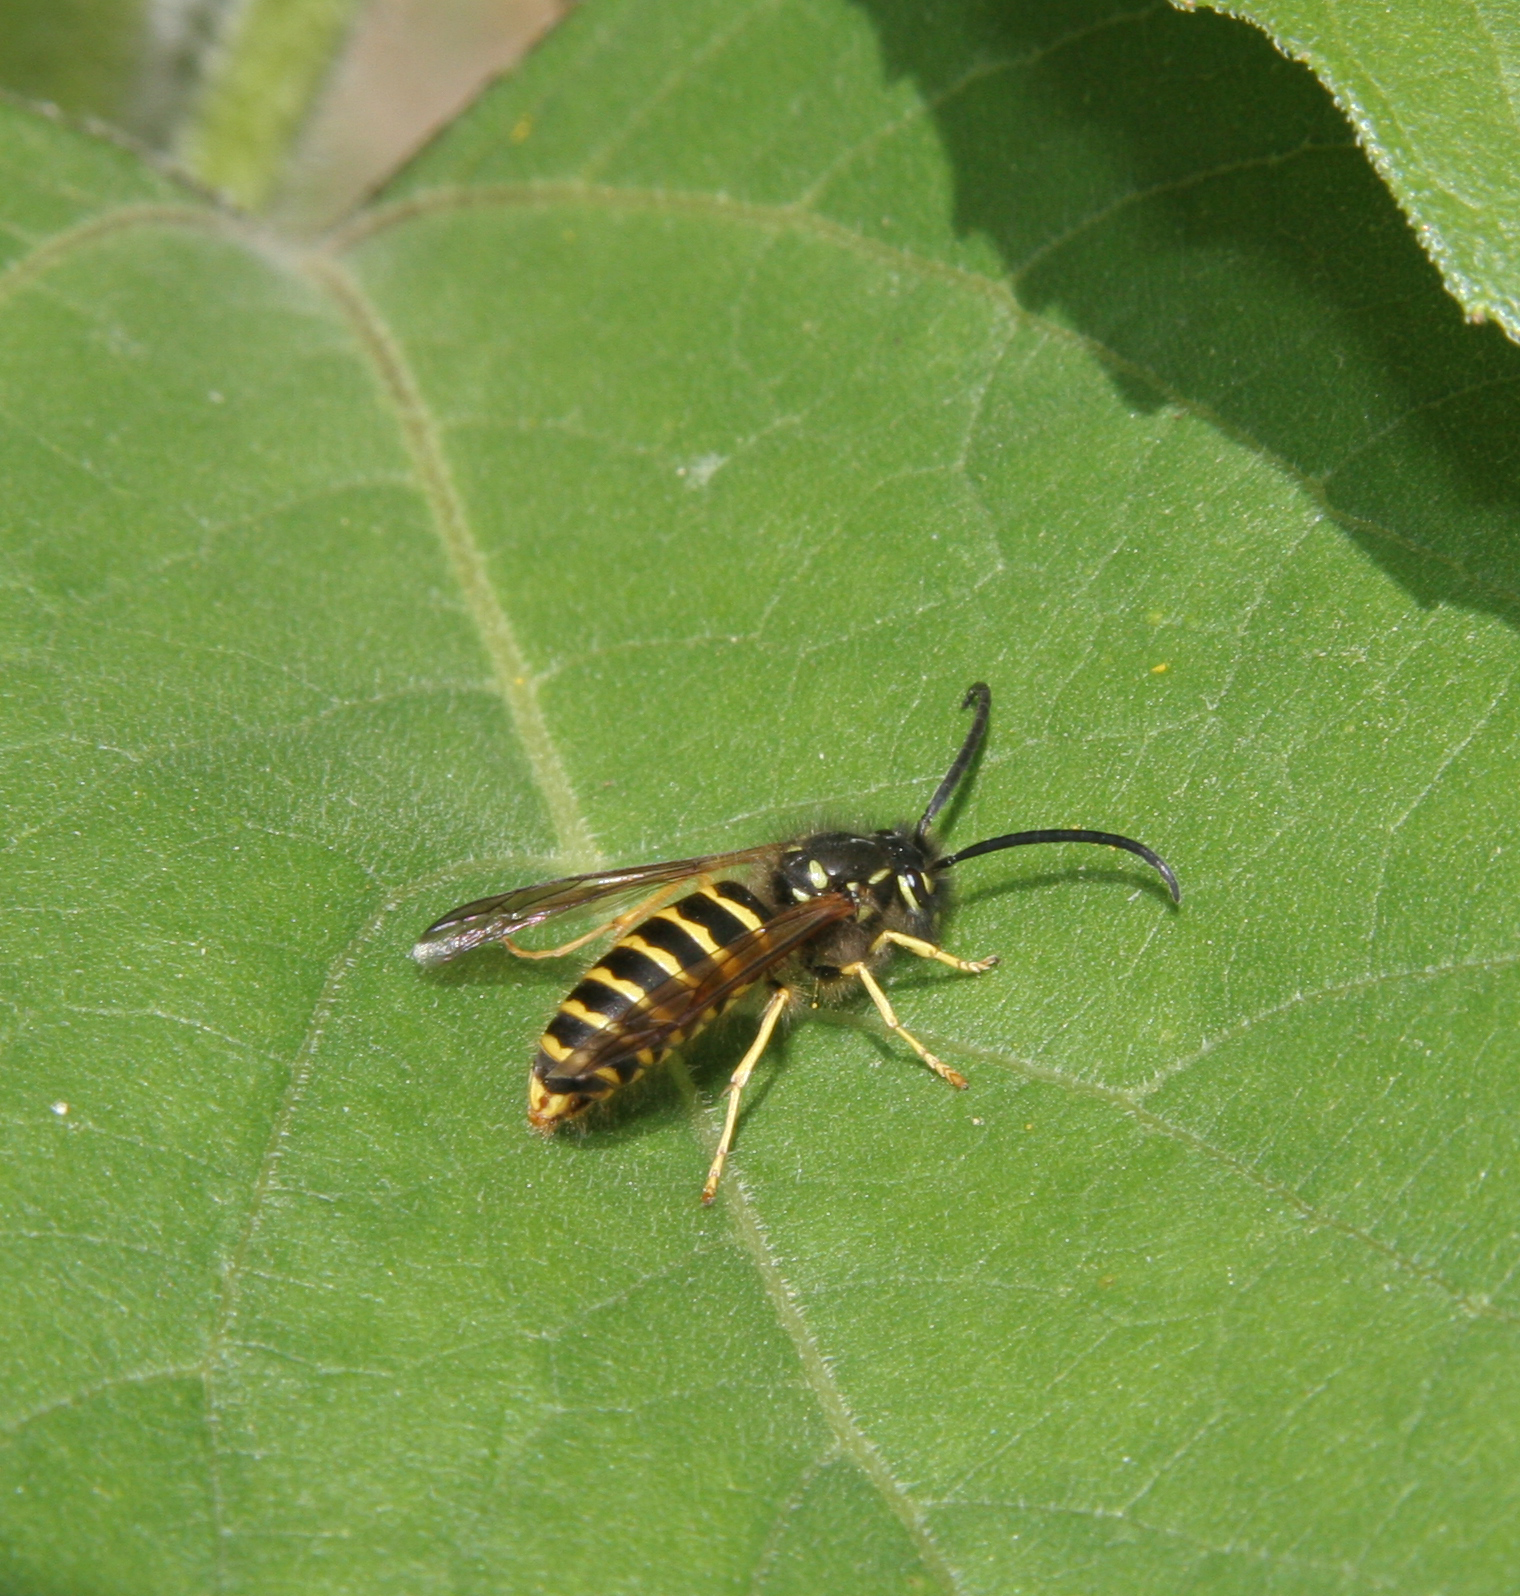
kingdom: Animalia
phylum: Arthropoda
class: Insecta
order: Hymenoptera
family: Vespidae
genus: Vespula
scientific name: Vespula alascensis
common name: Alaska yellowjacket
